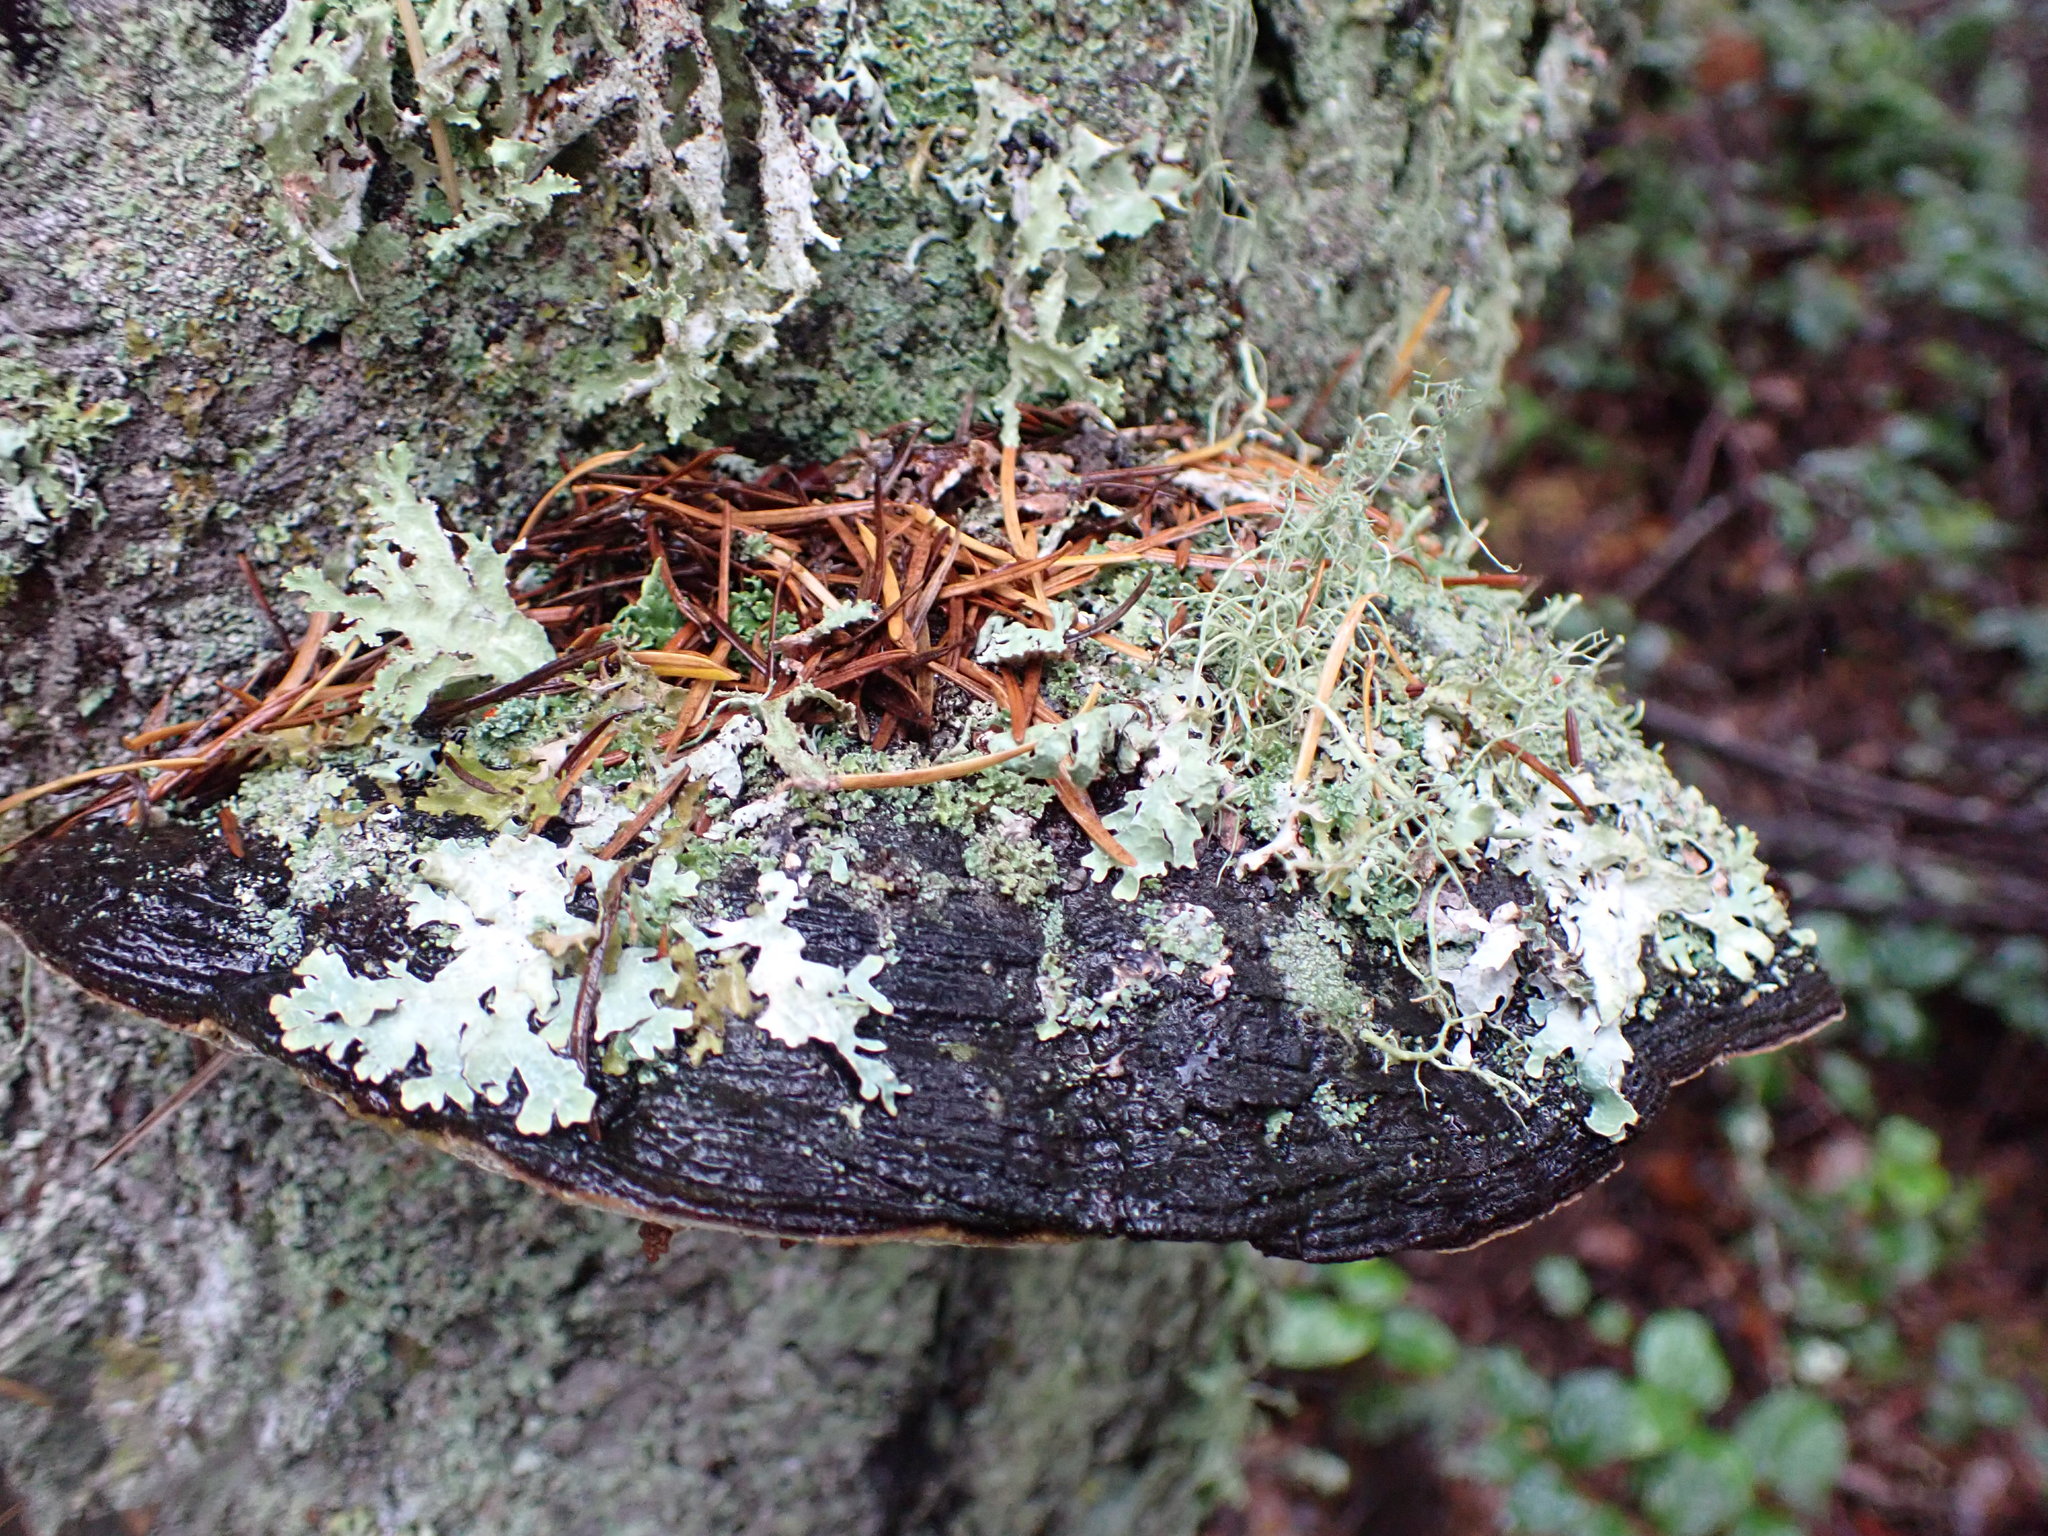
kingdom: Fungi
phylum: Basidiomycota
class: Agaricomycetes
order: Hymenochaetales
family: Hymenochaetaceae
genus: Porodaedalea
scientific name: Porodaedalea pini
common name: Pine bracket
